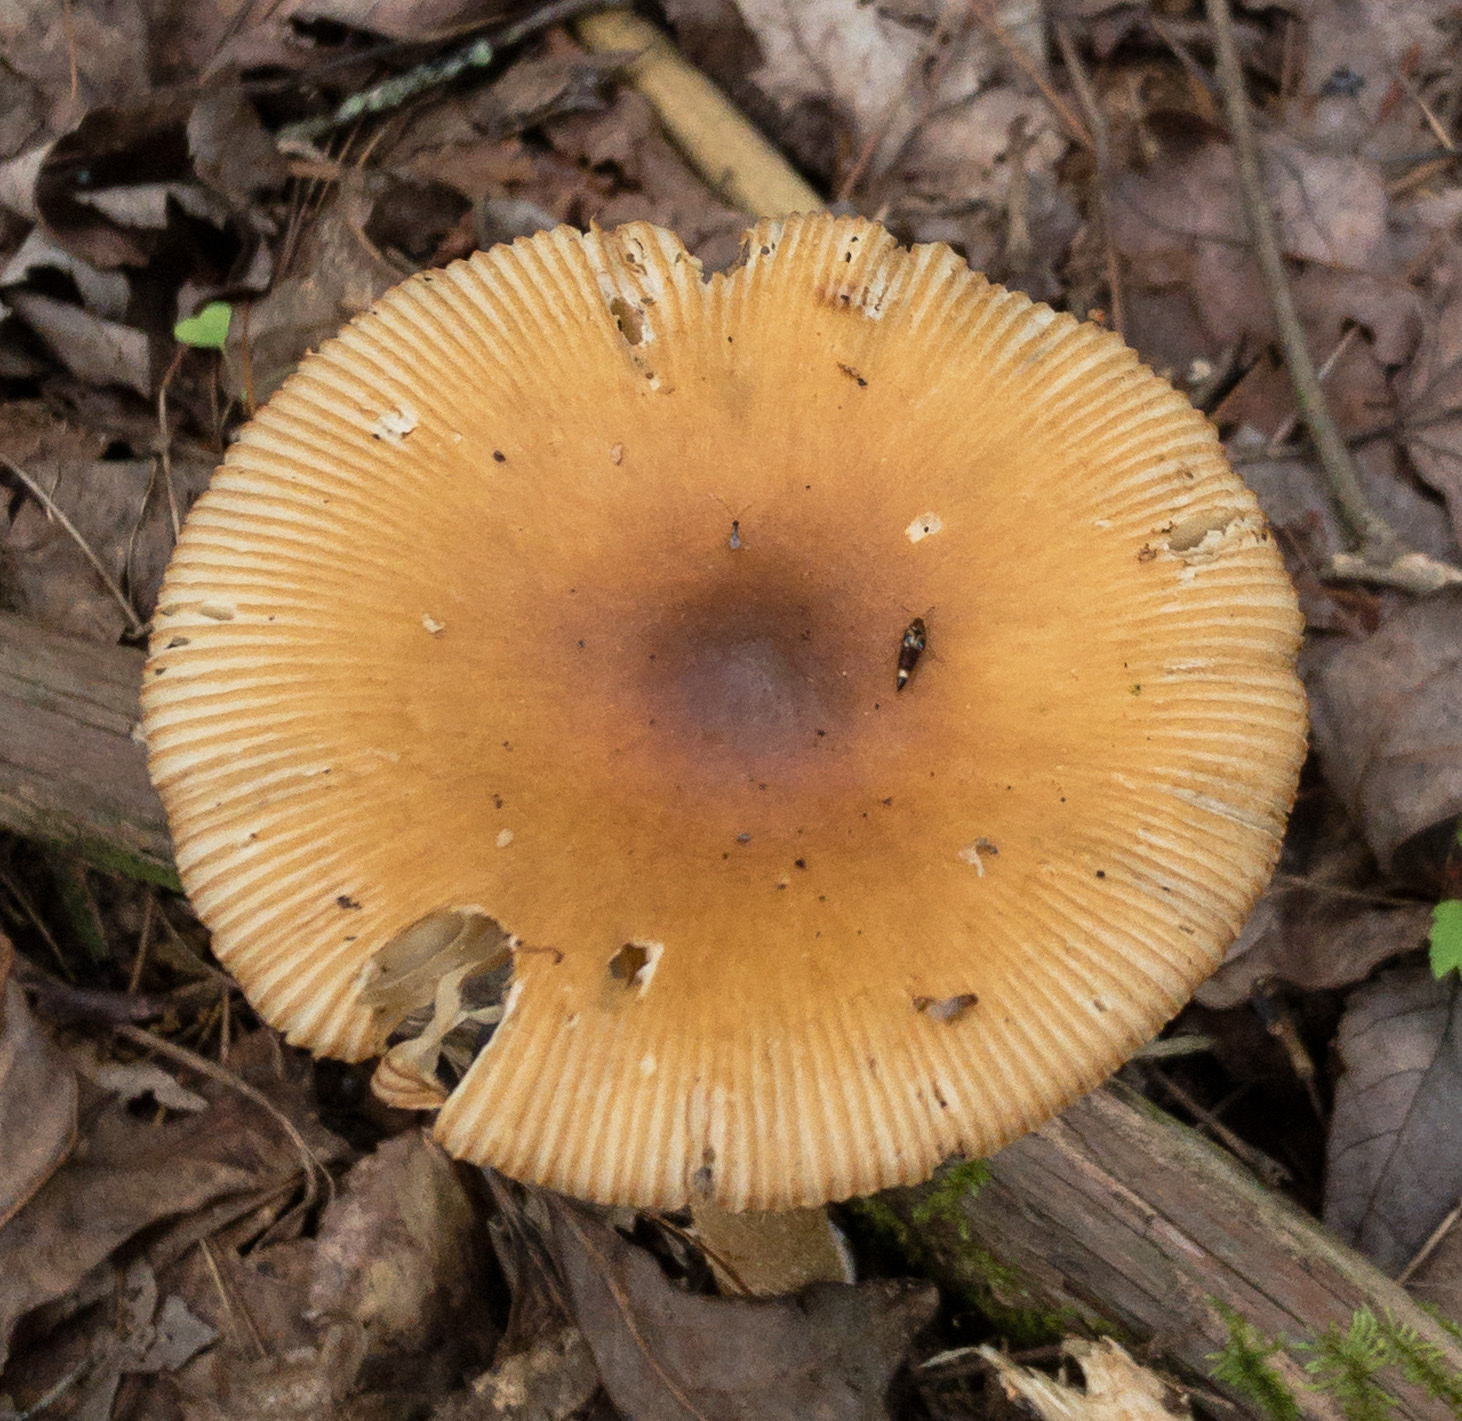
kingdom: Fungi
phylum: Basidiomycota
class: Agaricomycetes
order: Agaricales
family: Amanitaceae
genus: Amanita
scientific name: Amanita fulva
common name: Tawny grisette
